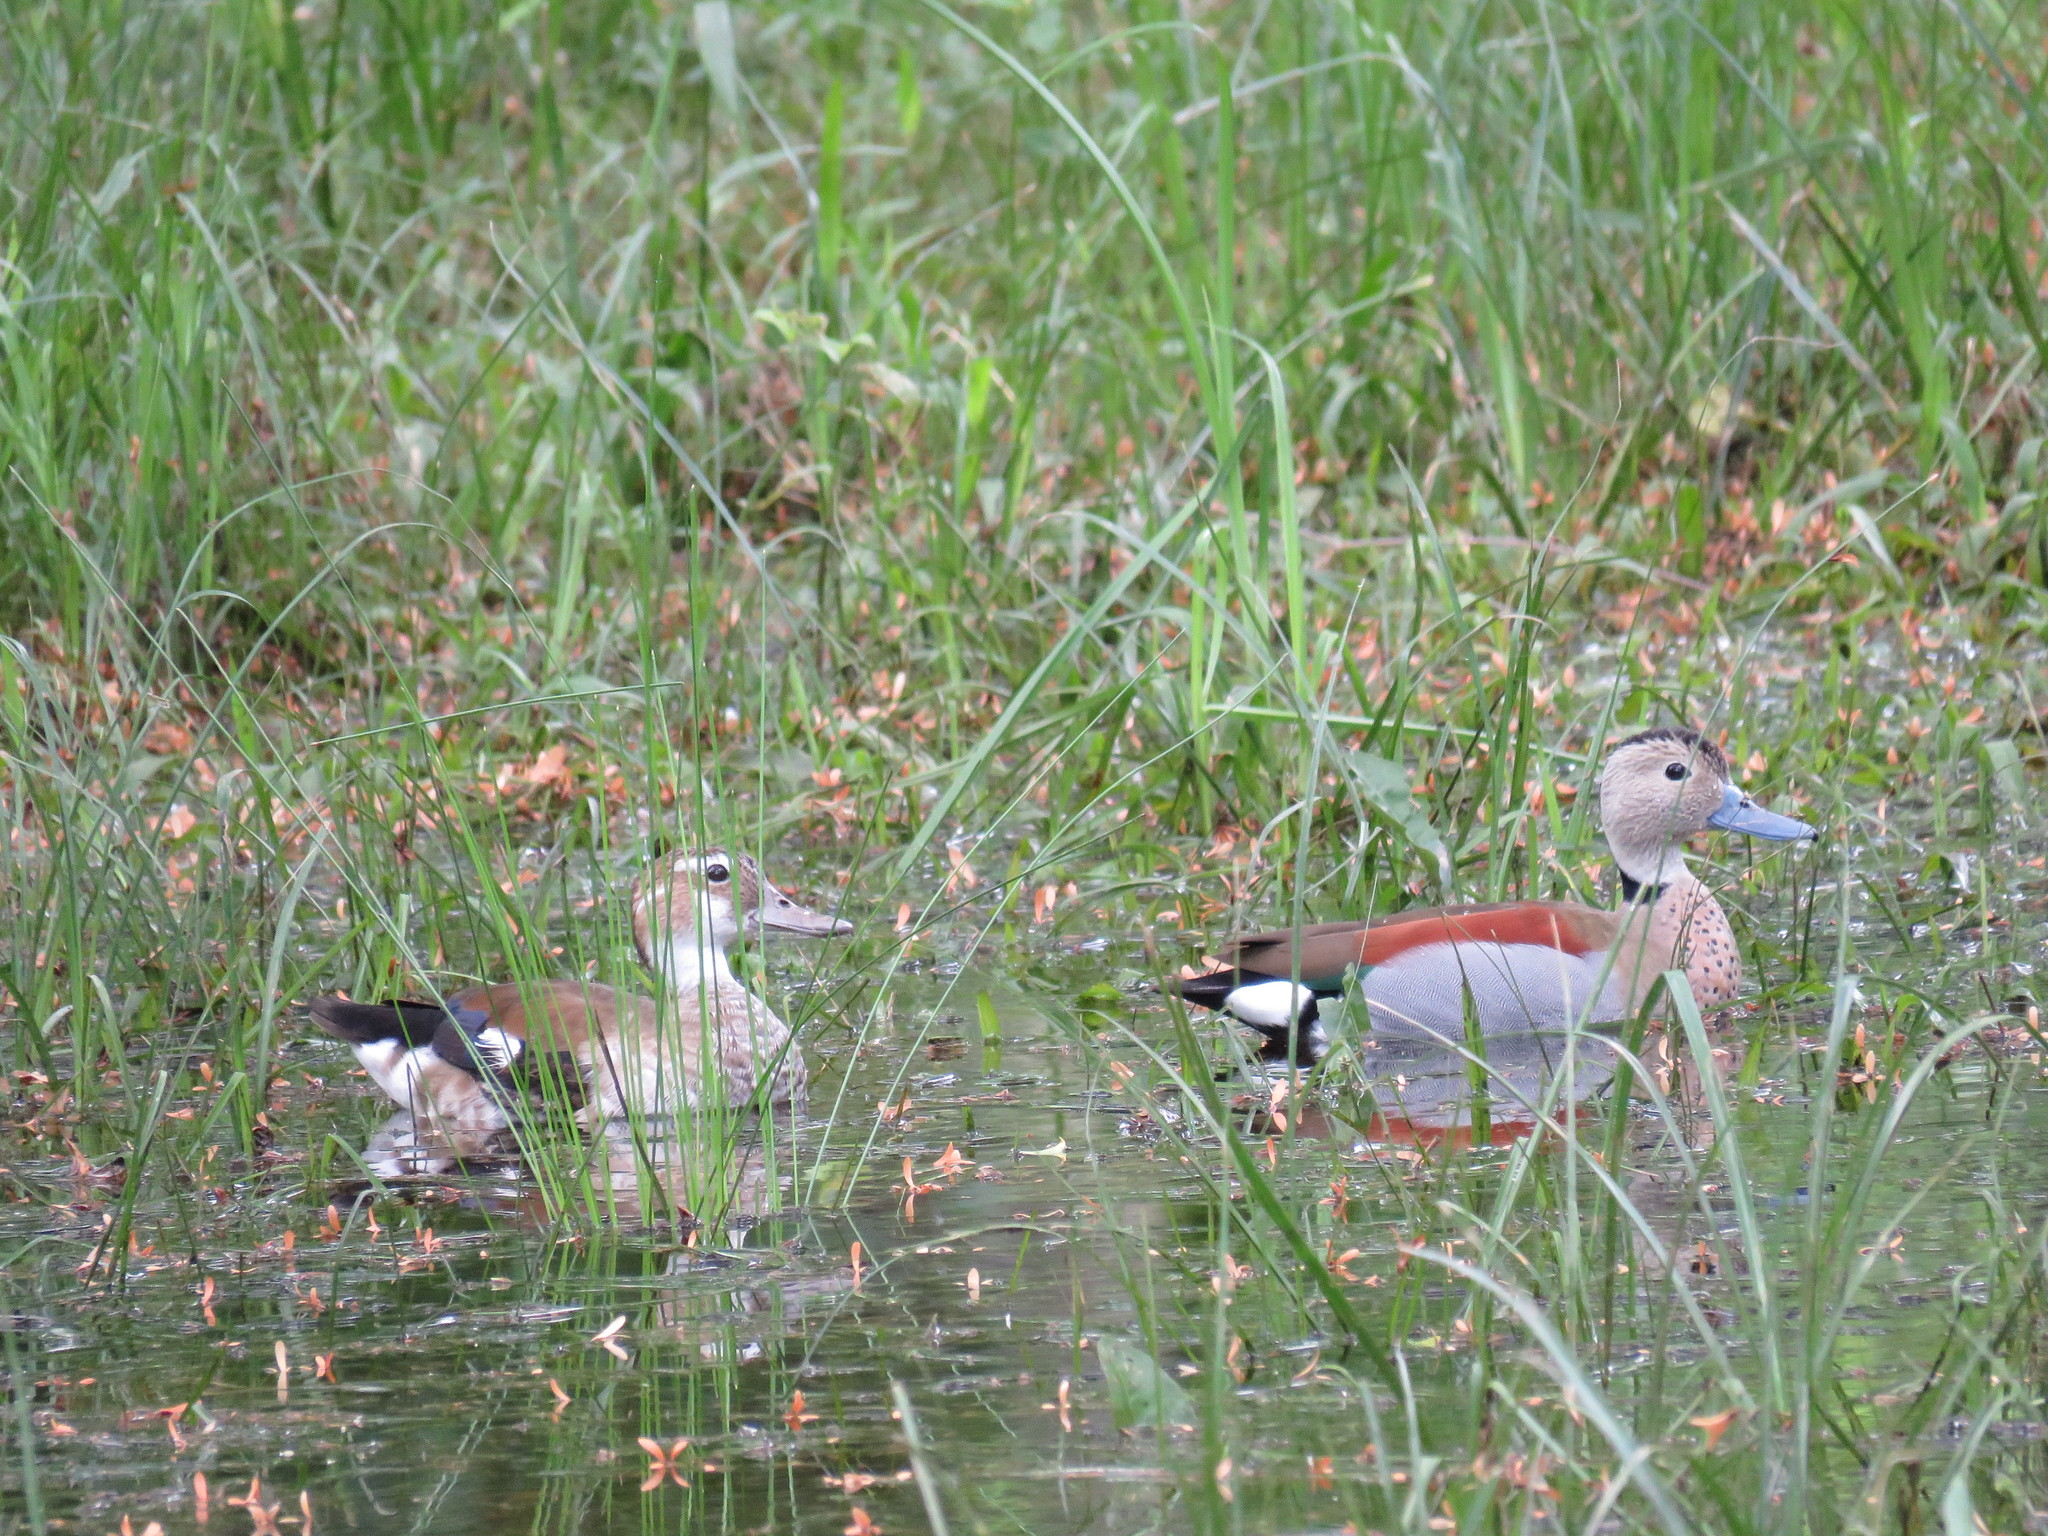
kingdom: Animalia
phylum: Chordata
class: Aves
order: Anseriformes
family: Anatidae
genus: Callonetta
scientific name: Callonetta leucophrys
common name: Ringed teal
